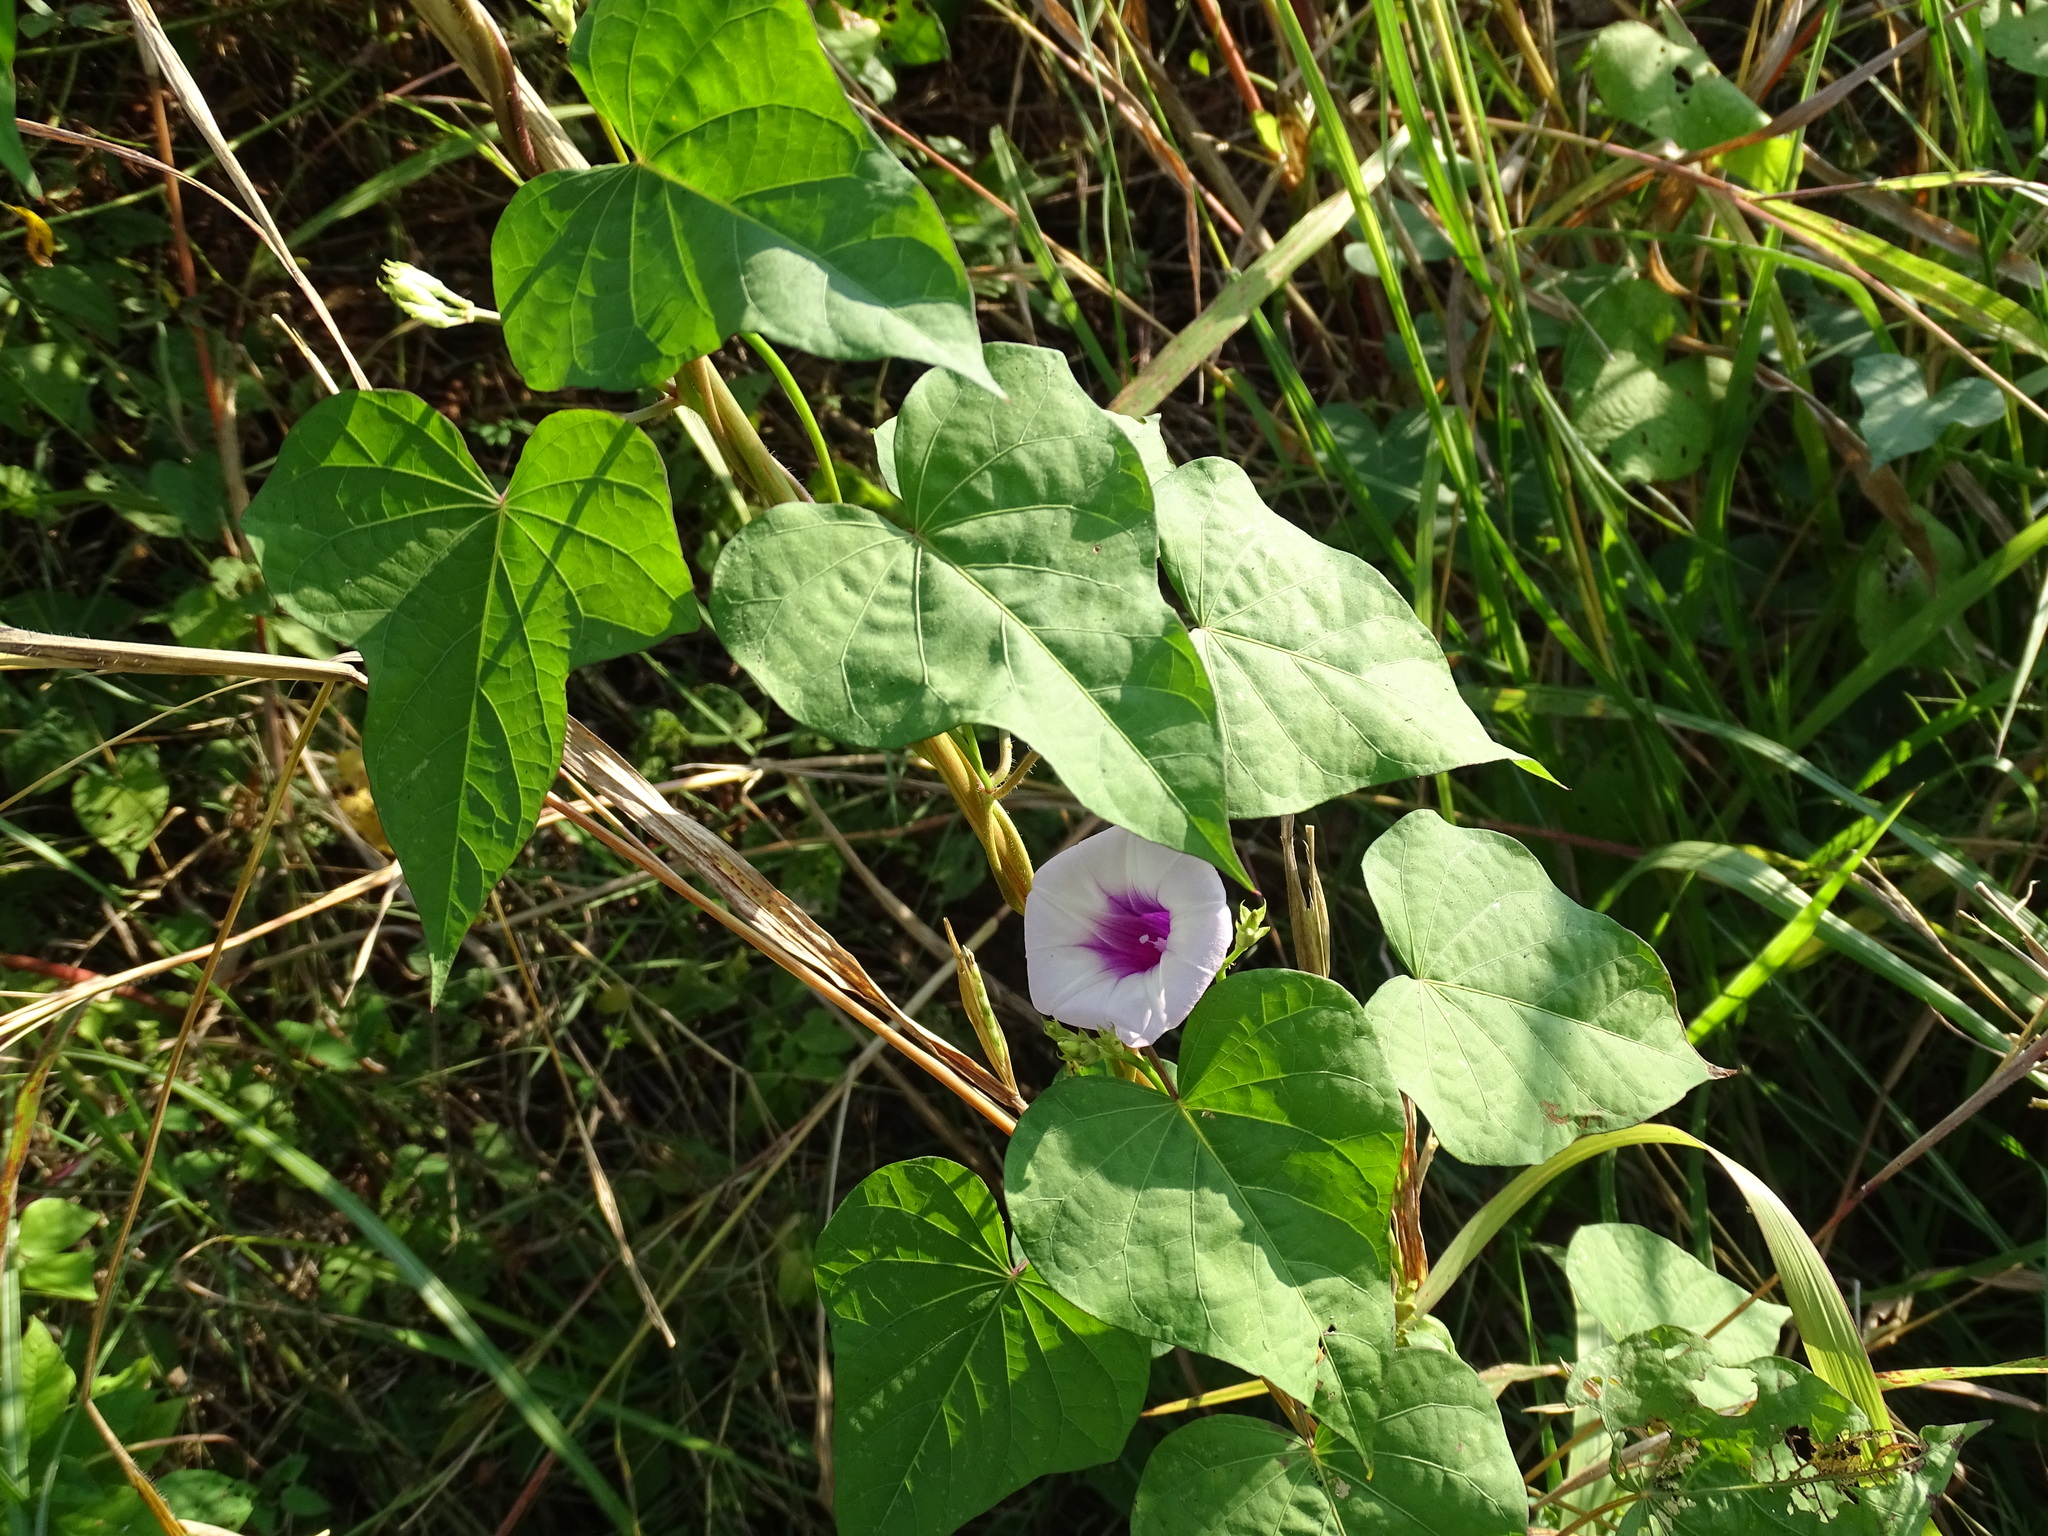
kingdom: Plantae
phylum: Tracheophyta
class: Magnoliopsida
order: Solanales
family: Convolvulaceae
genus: Ipomoea
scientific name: Ipomoea batatas
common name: Sweet-potato
